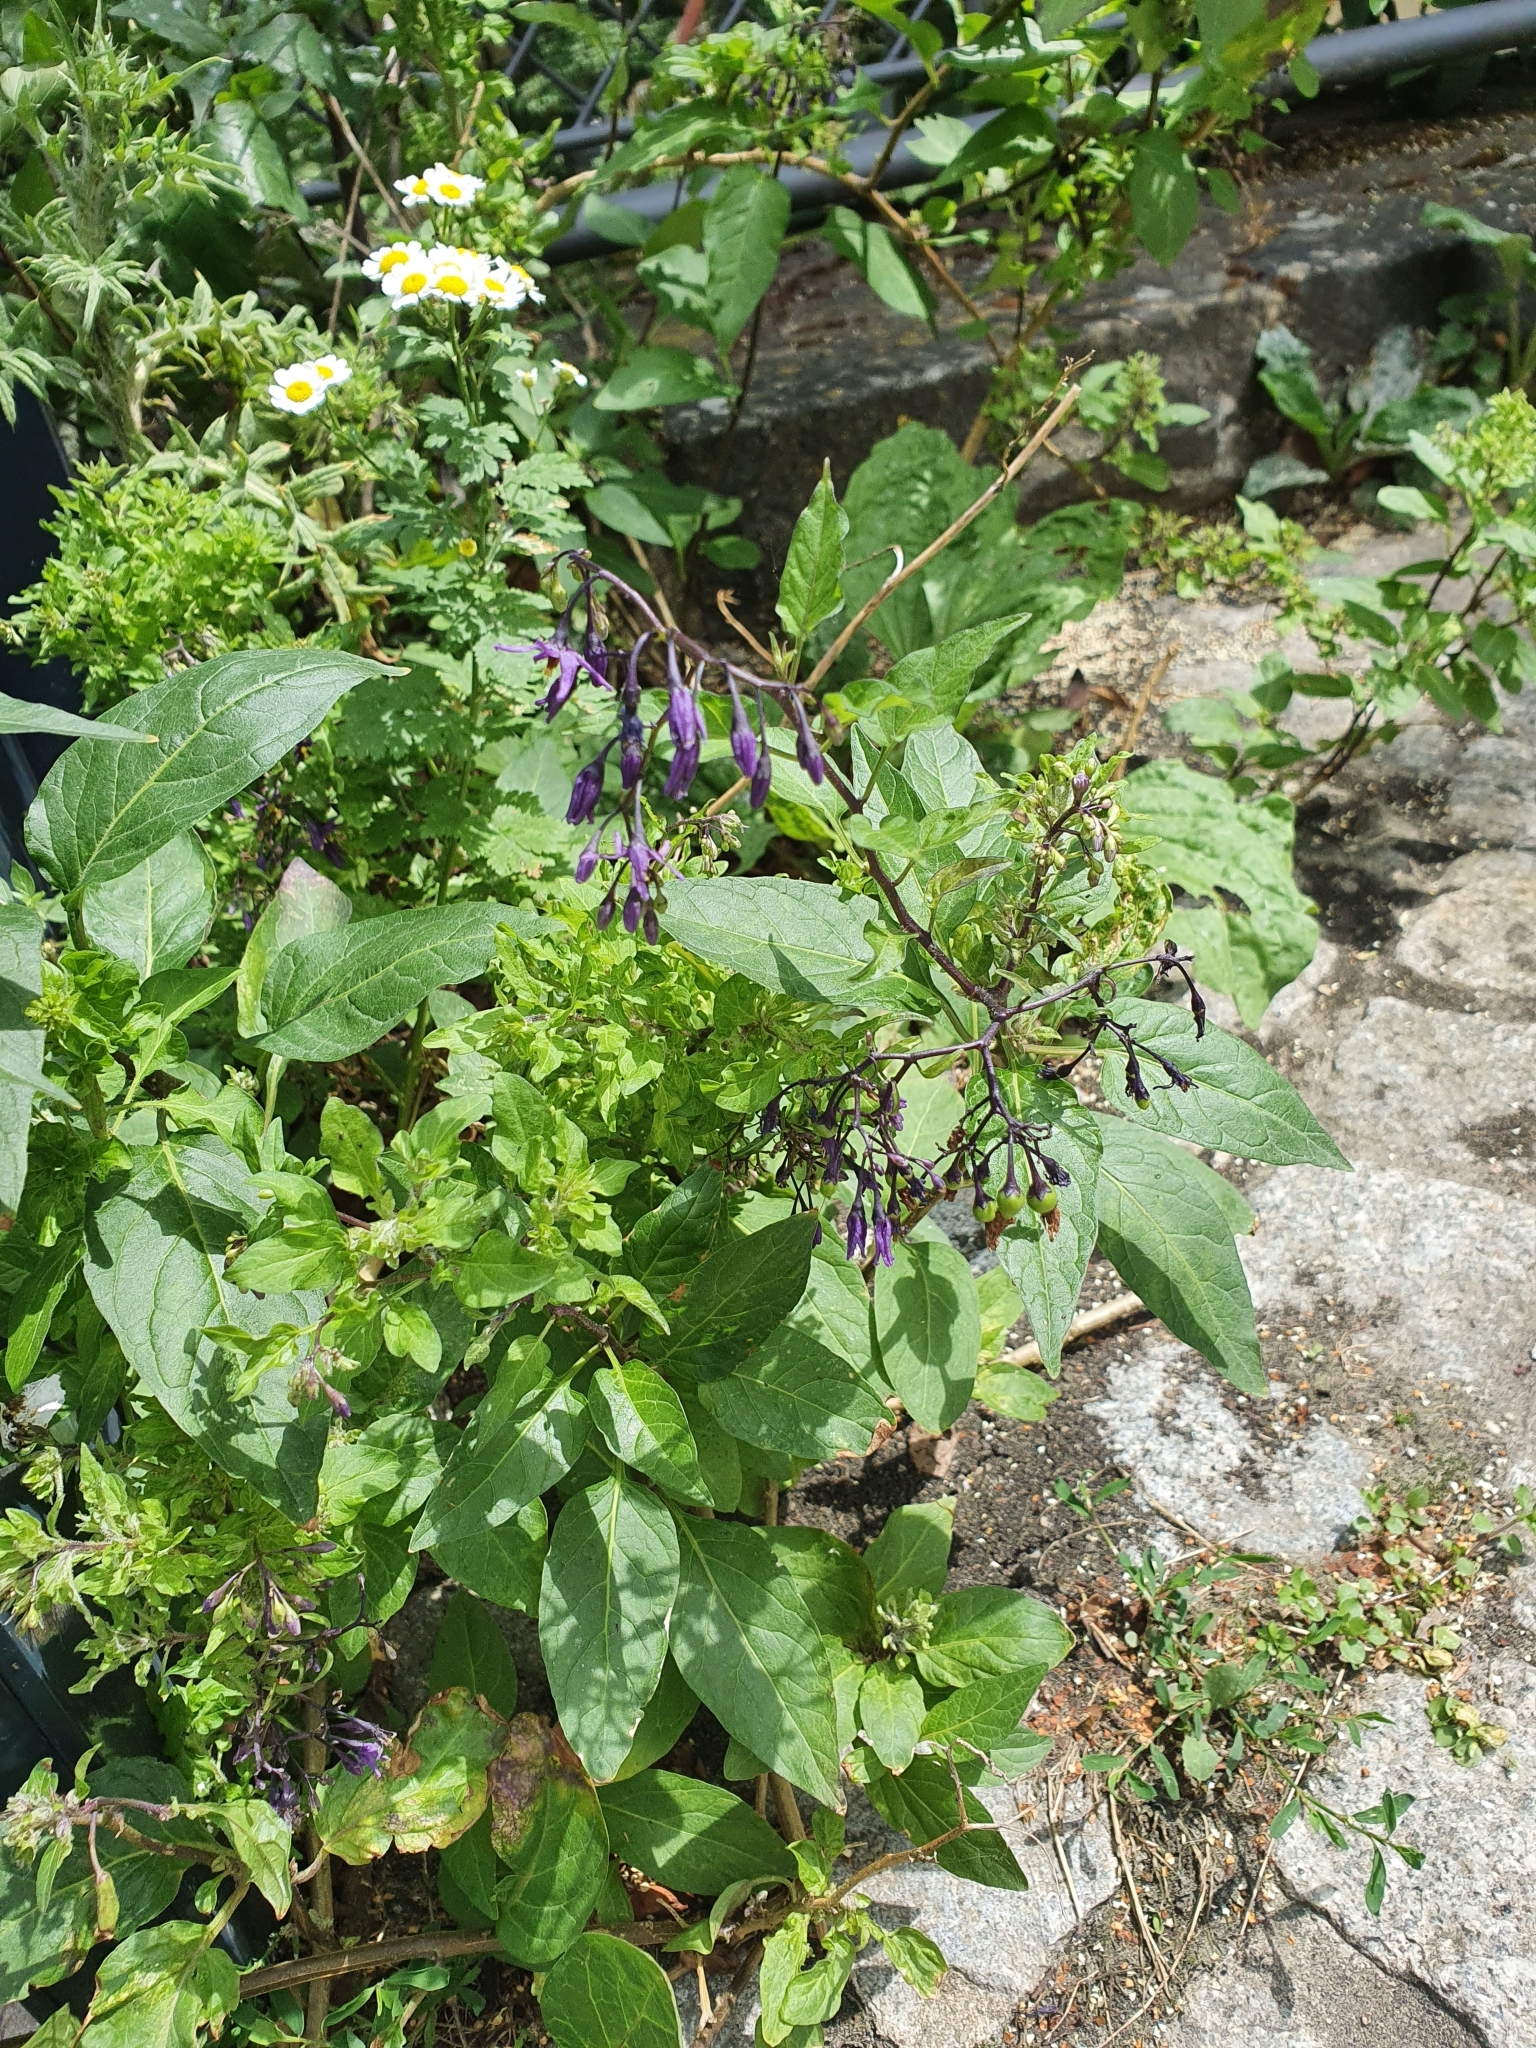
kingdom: Plantae
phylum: Tracheophyta
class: Magnoliopsida
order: Solanales
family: Solanaceae
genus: Solanum
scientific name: Solanum dulcamara
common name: Climbing nightshade
